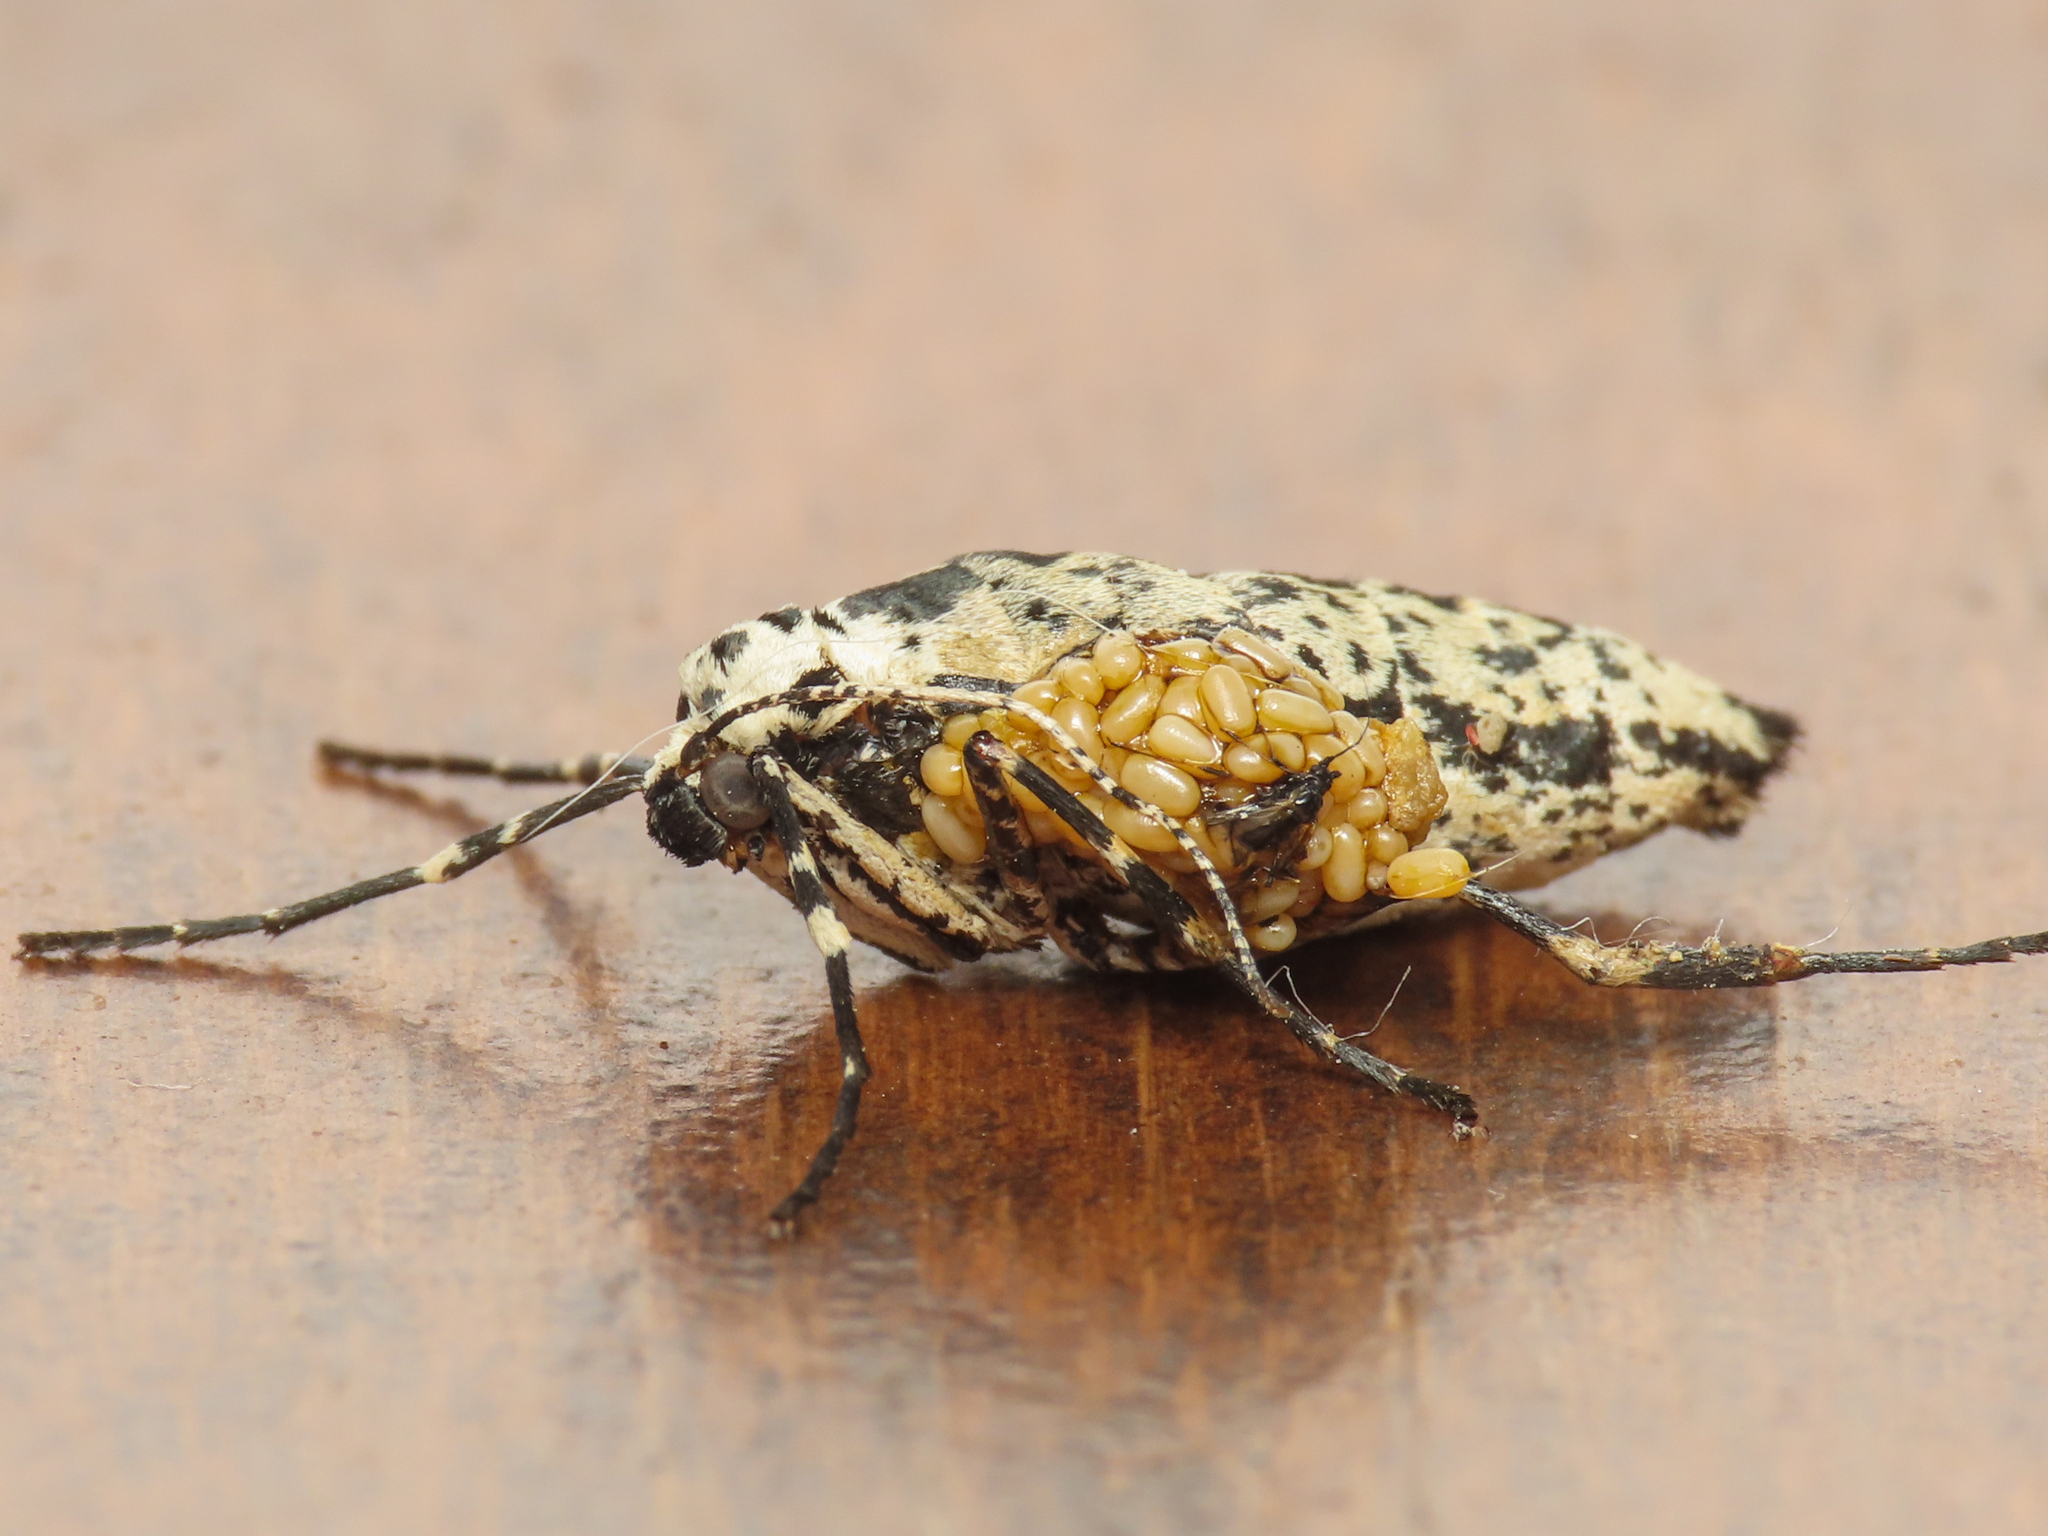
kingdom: Animalia
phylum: Arthropoda
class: Insecta
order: Lepidoptera
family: Geometridae
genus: Erannis
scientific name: Erannis defoliaria
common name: Mottled umber
